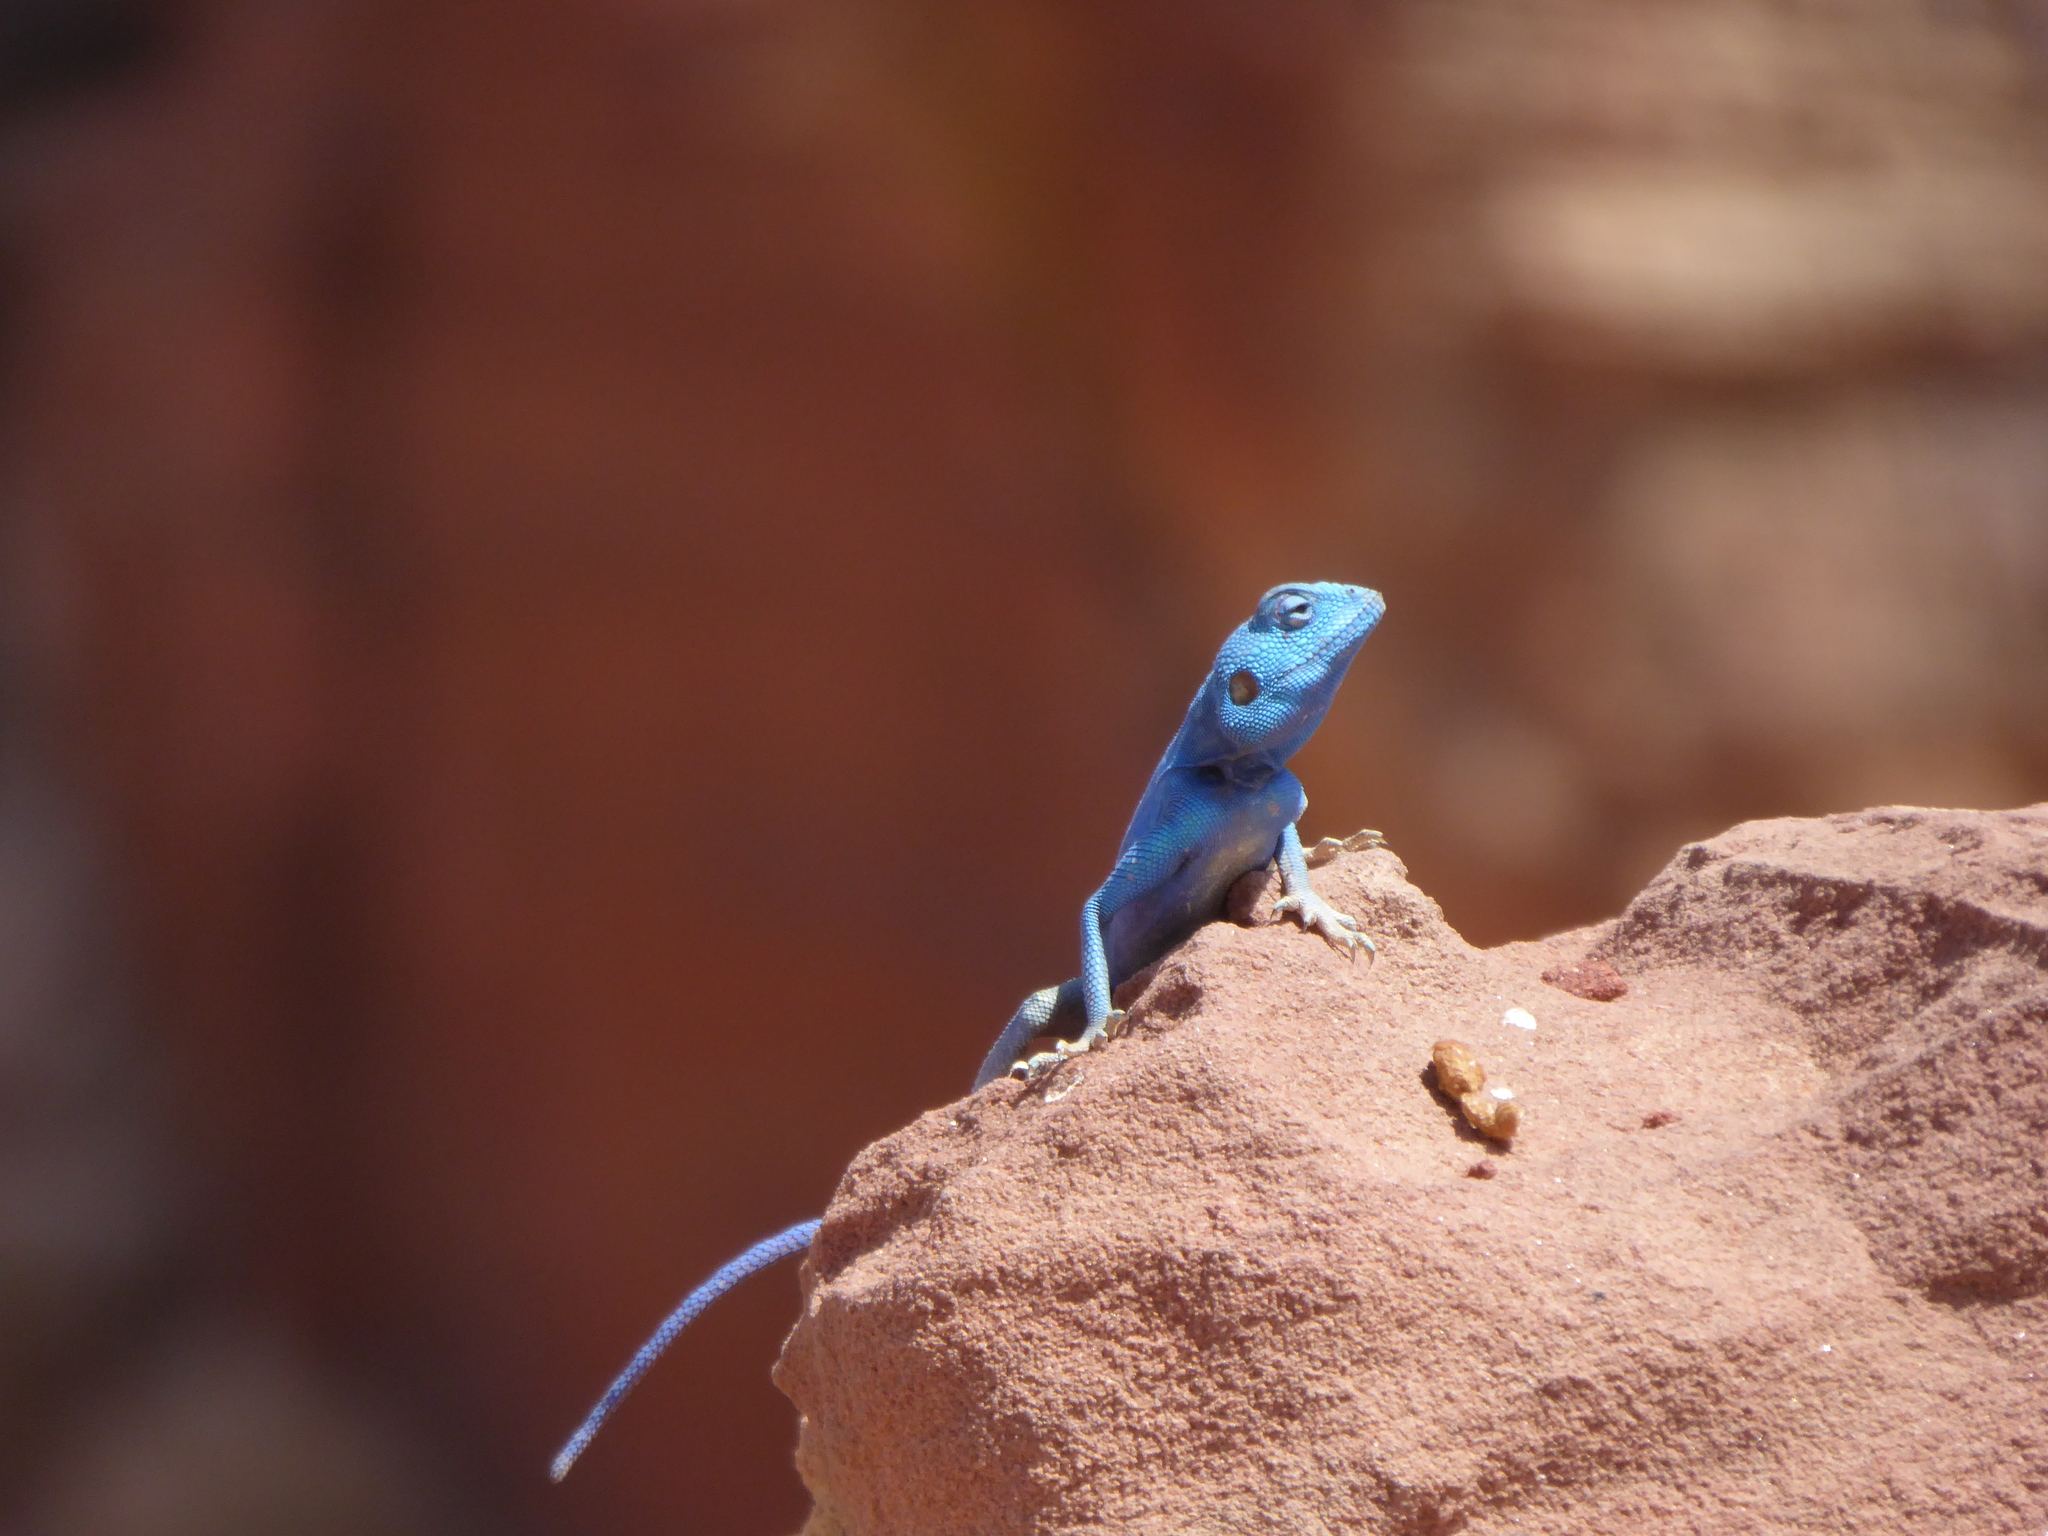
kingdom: Animalia
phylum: Chordata
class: Squamata
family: Agamidae
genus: Pseudotrapelus
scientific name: Pseudotrapelus sinaitus
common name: Sinai agama
